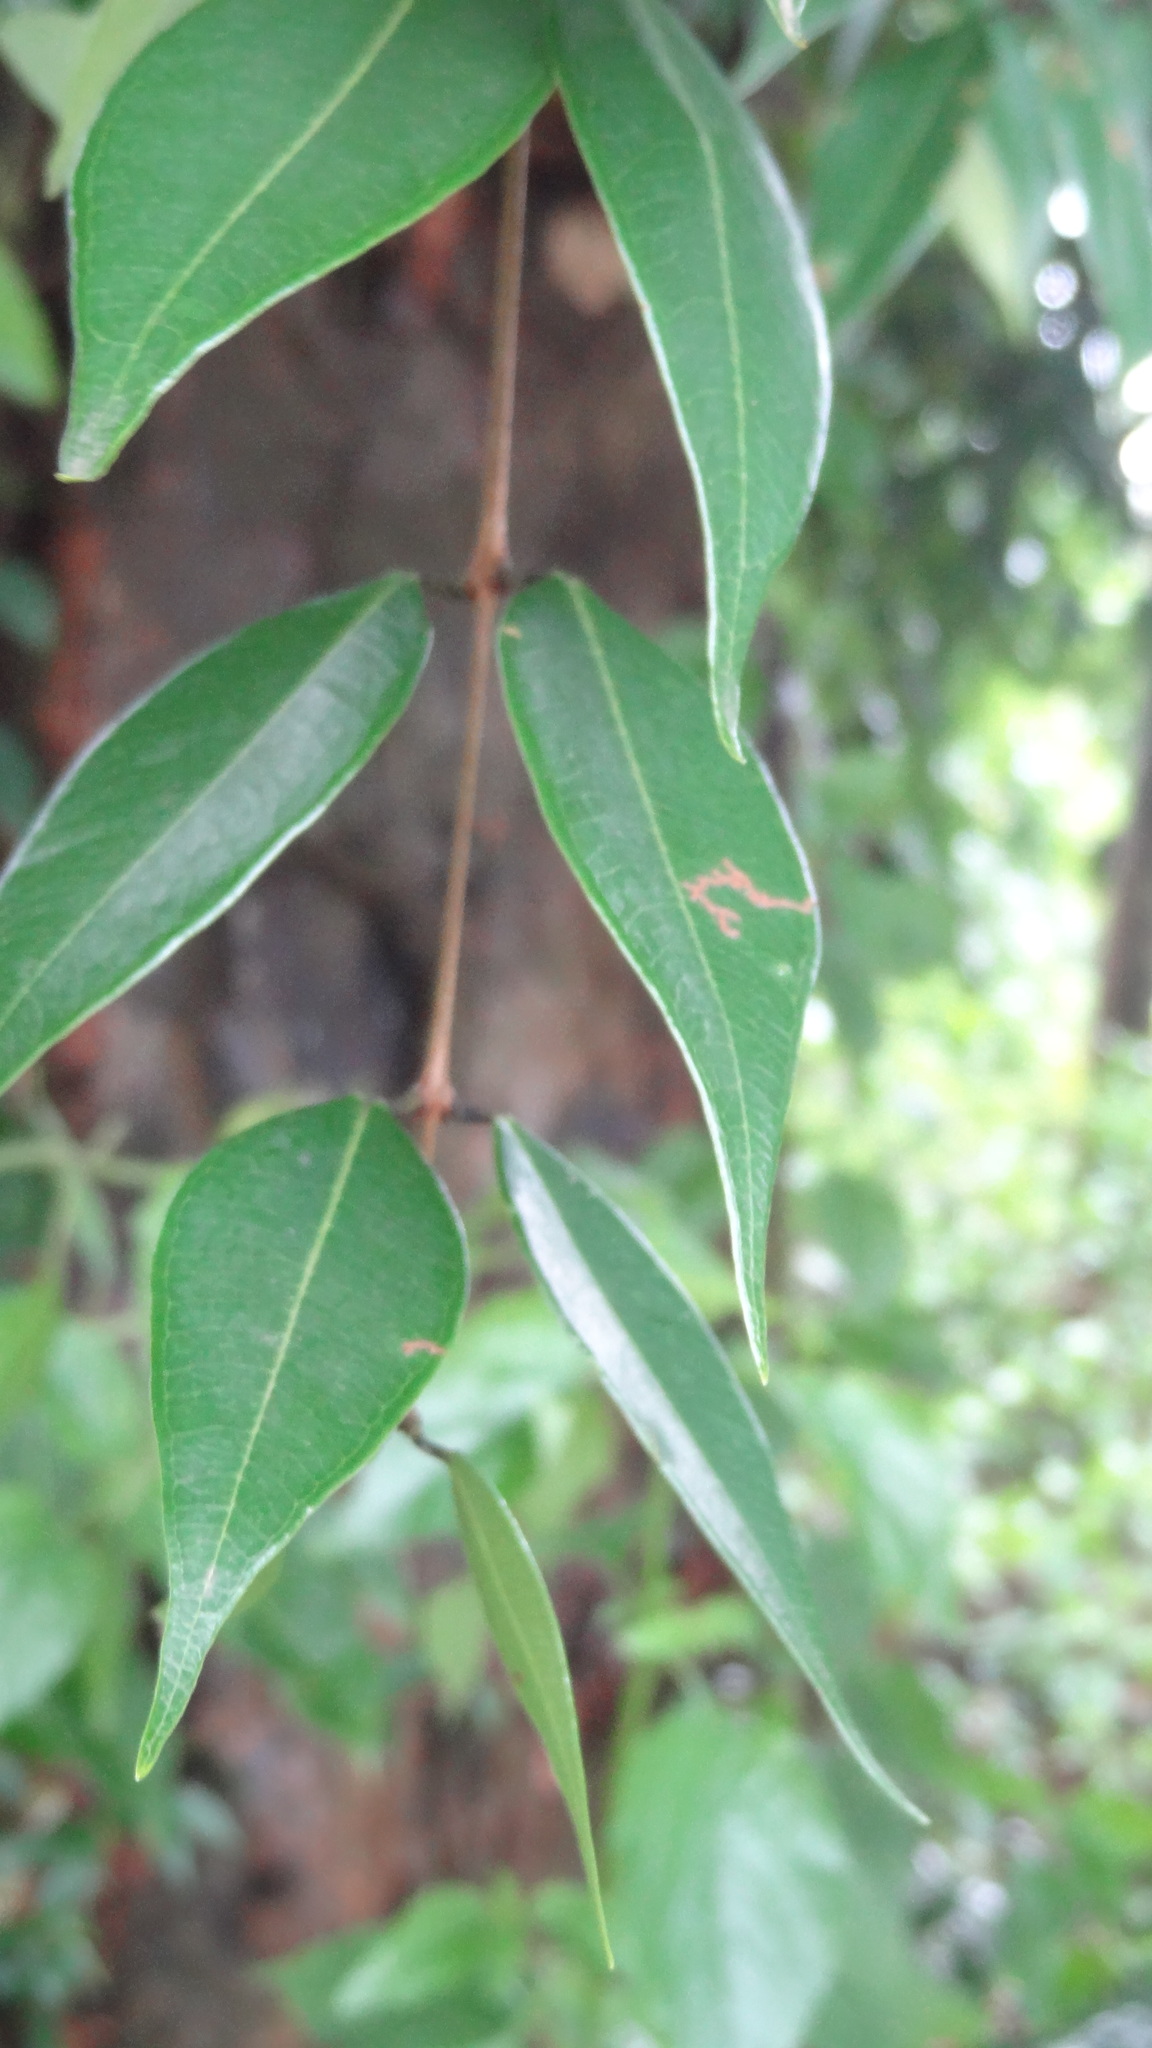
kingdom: Plantae
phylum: Tracheophyta
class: Magnoliopsida
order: Myrtales
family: Myrtaceae
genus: Syzygium
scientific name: Syzygium zeylanicum
